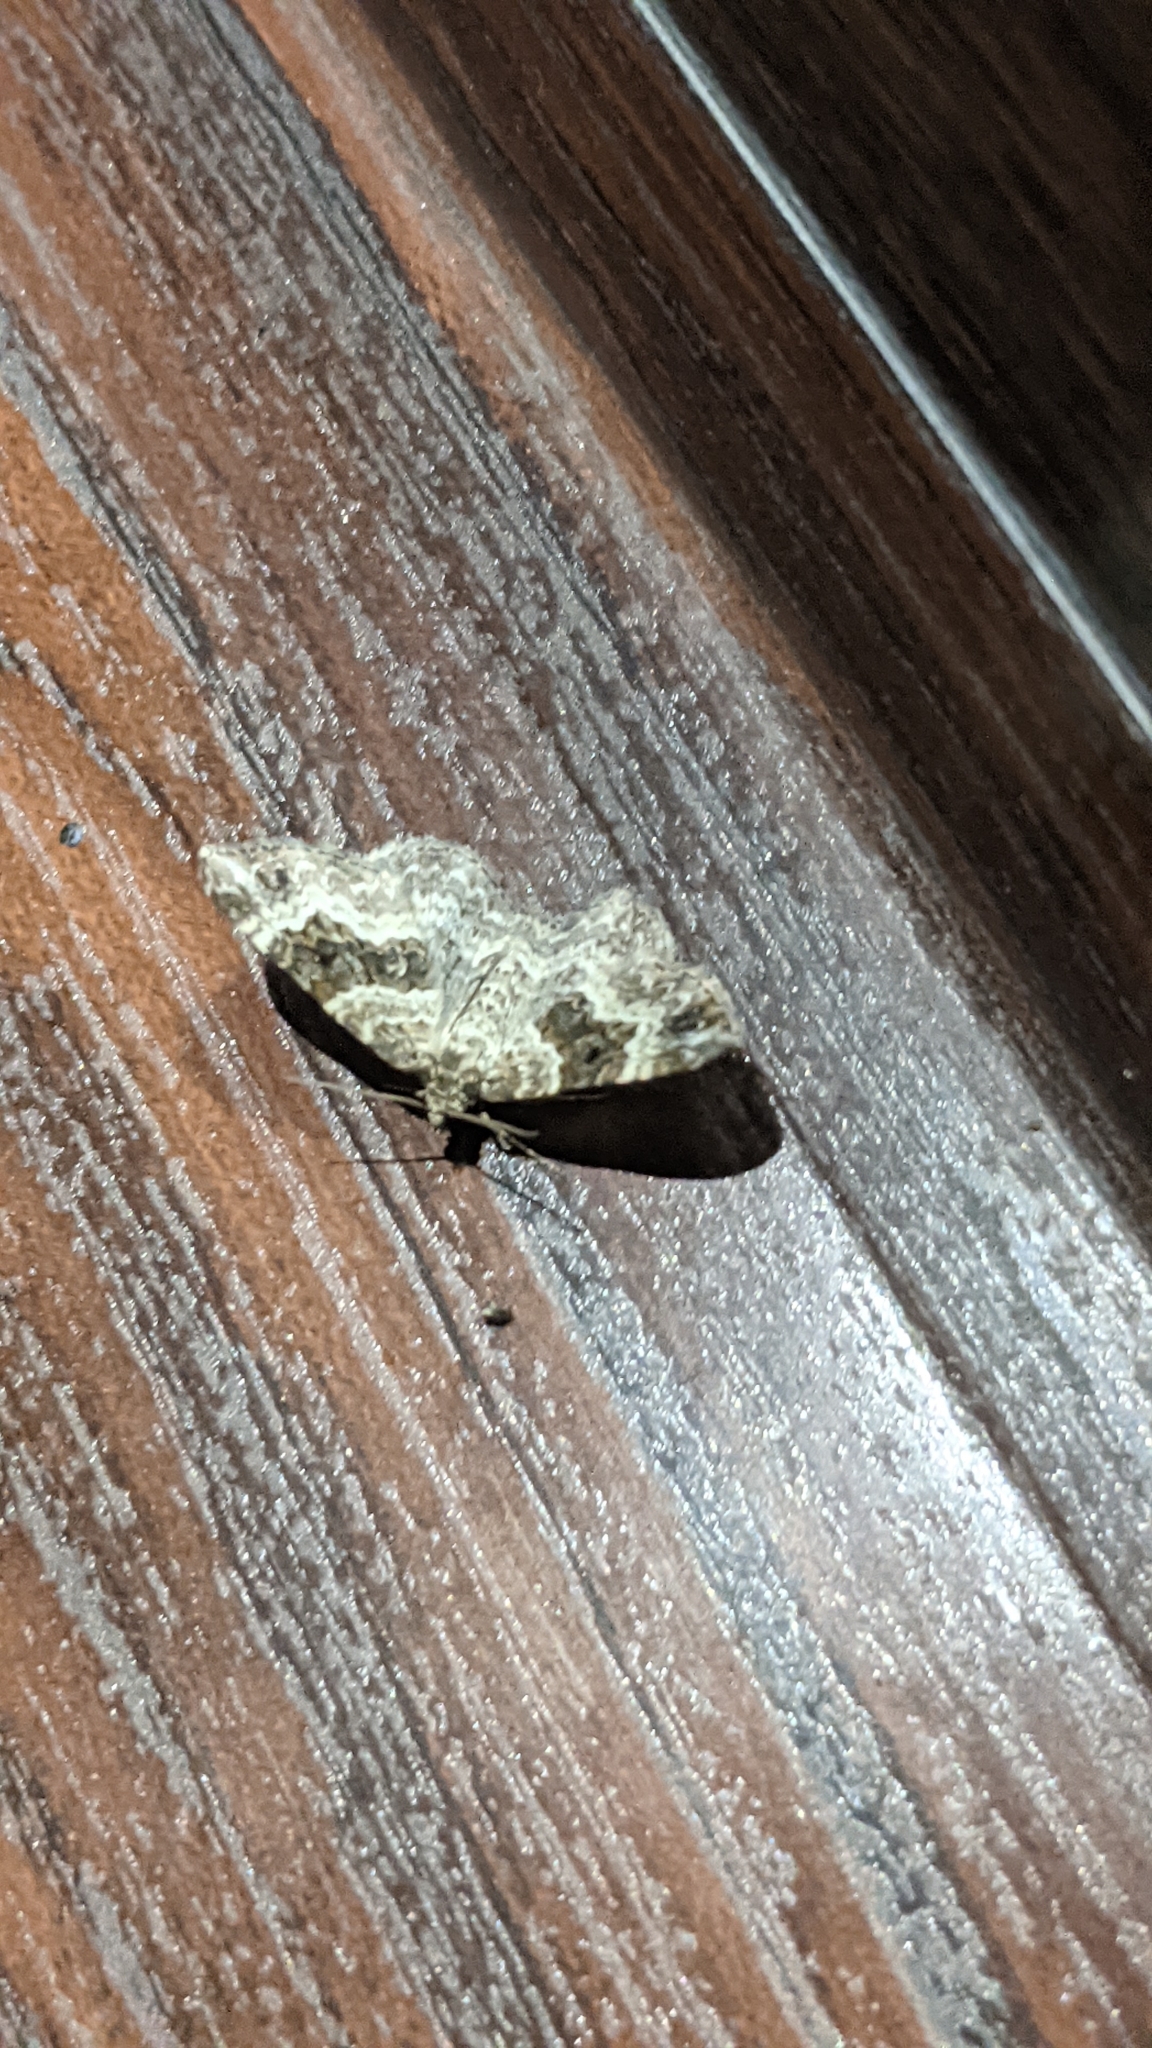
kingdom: Animalia
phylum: Arthropoda
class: Insecta
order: Lepidoptera
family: Geometridae
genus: Epirrhoe
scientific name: Epirrhoe alternata
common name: Common carpet
